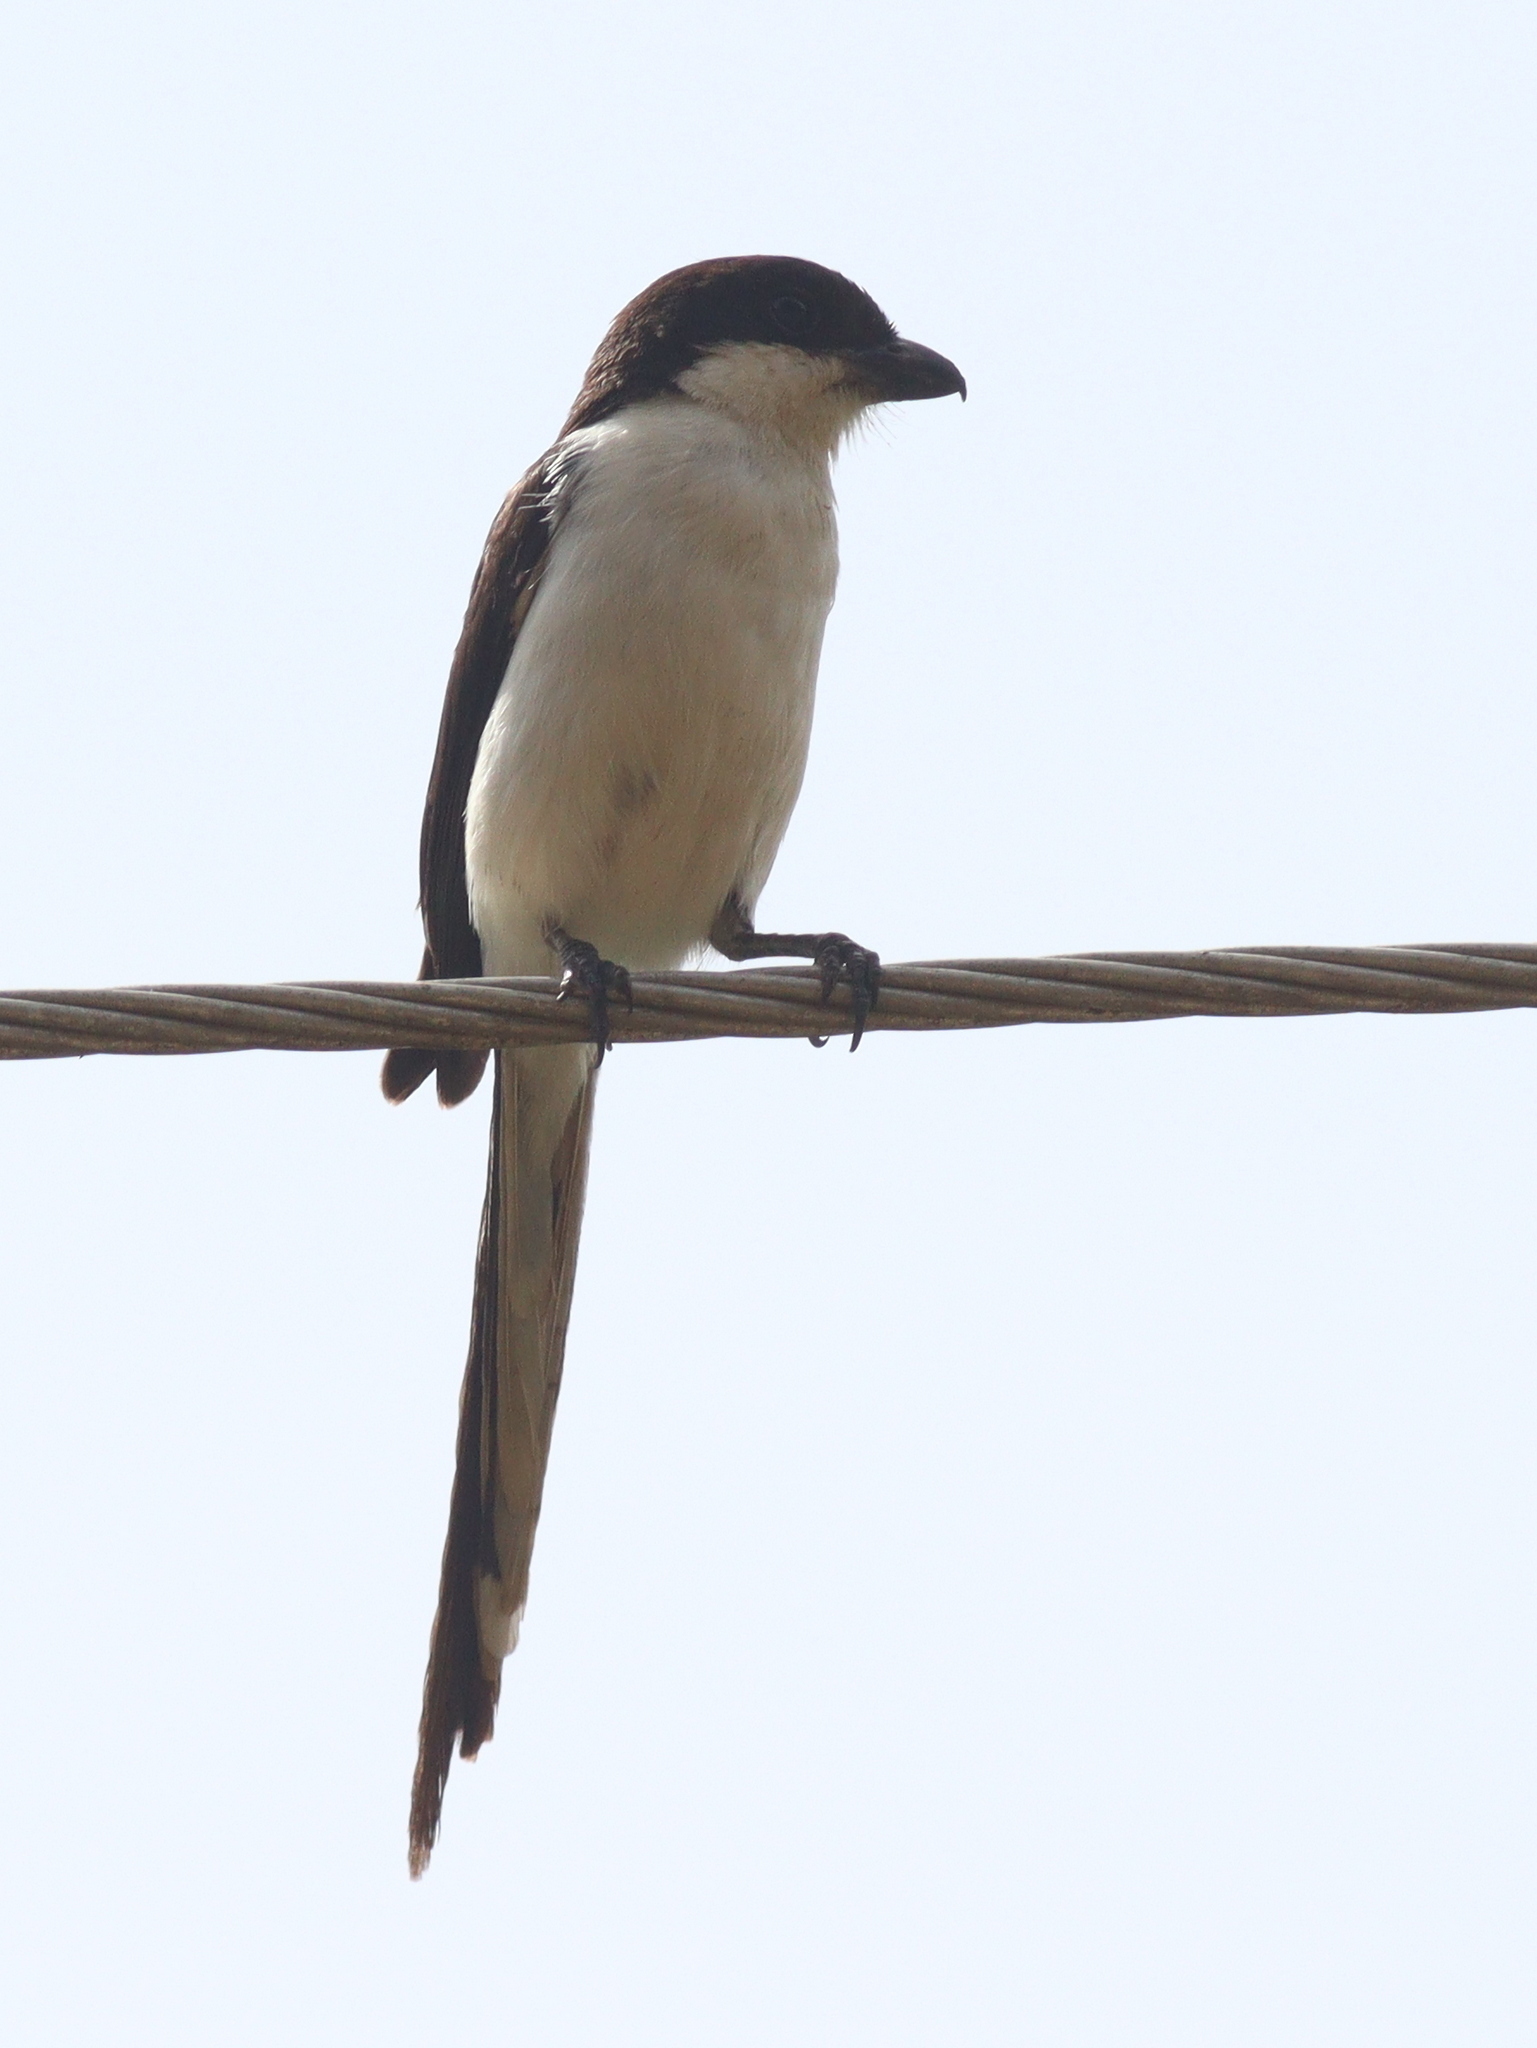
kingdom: Animalia
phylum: Chordata
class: Aves
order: Passeriformes
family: Laniidae
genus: Lanius
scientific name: Lanius humeralis
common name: Northern fiscal
